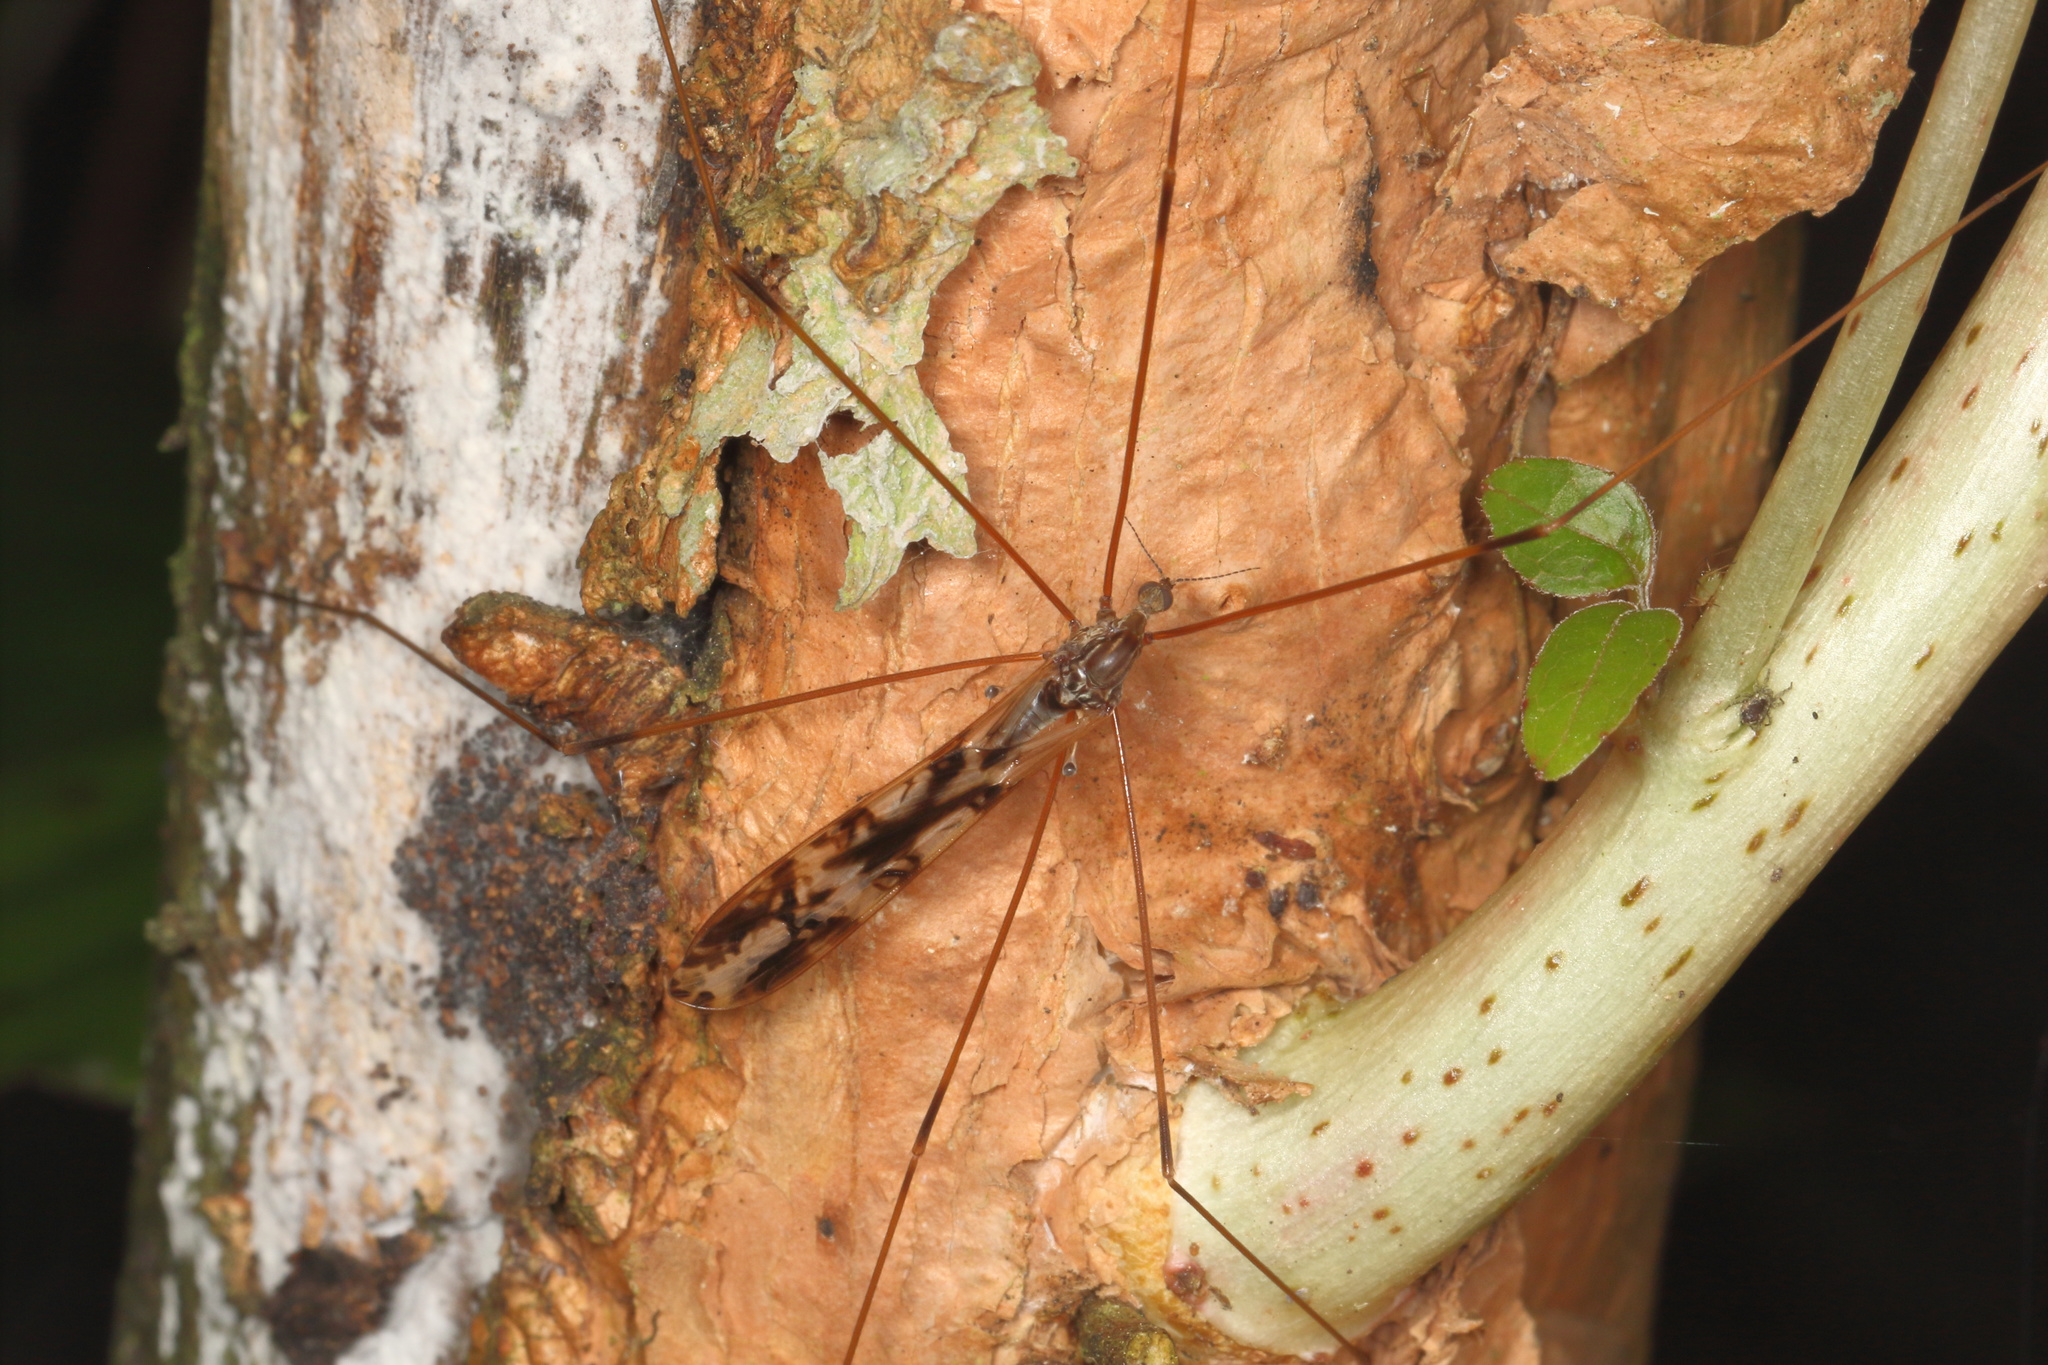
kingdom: Animalia
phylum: Arthropoda
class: Insecta
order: Diptera
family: Limoniidae
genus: Discobola
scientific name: Discobola dohrni
